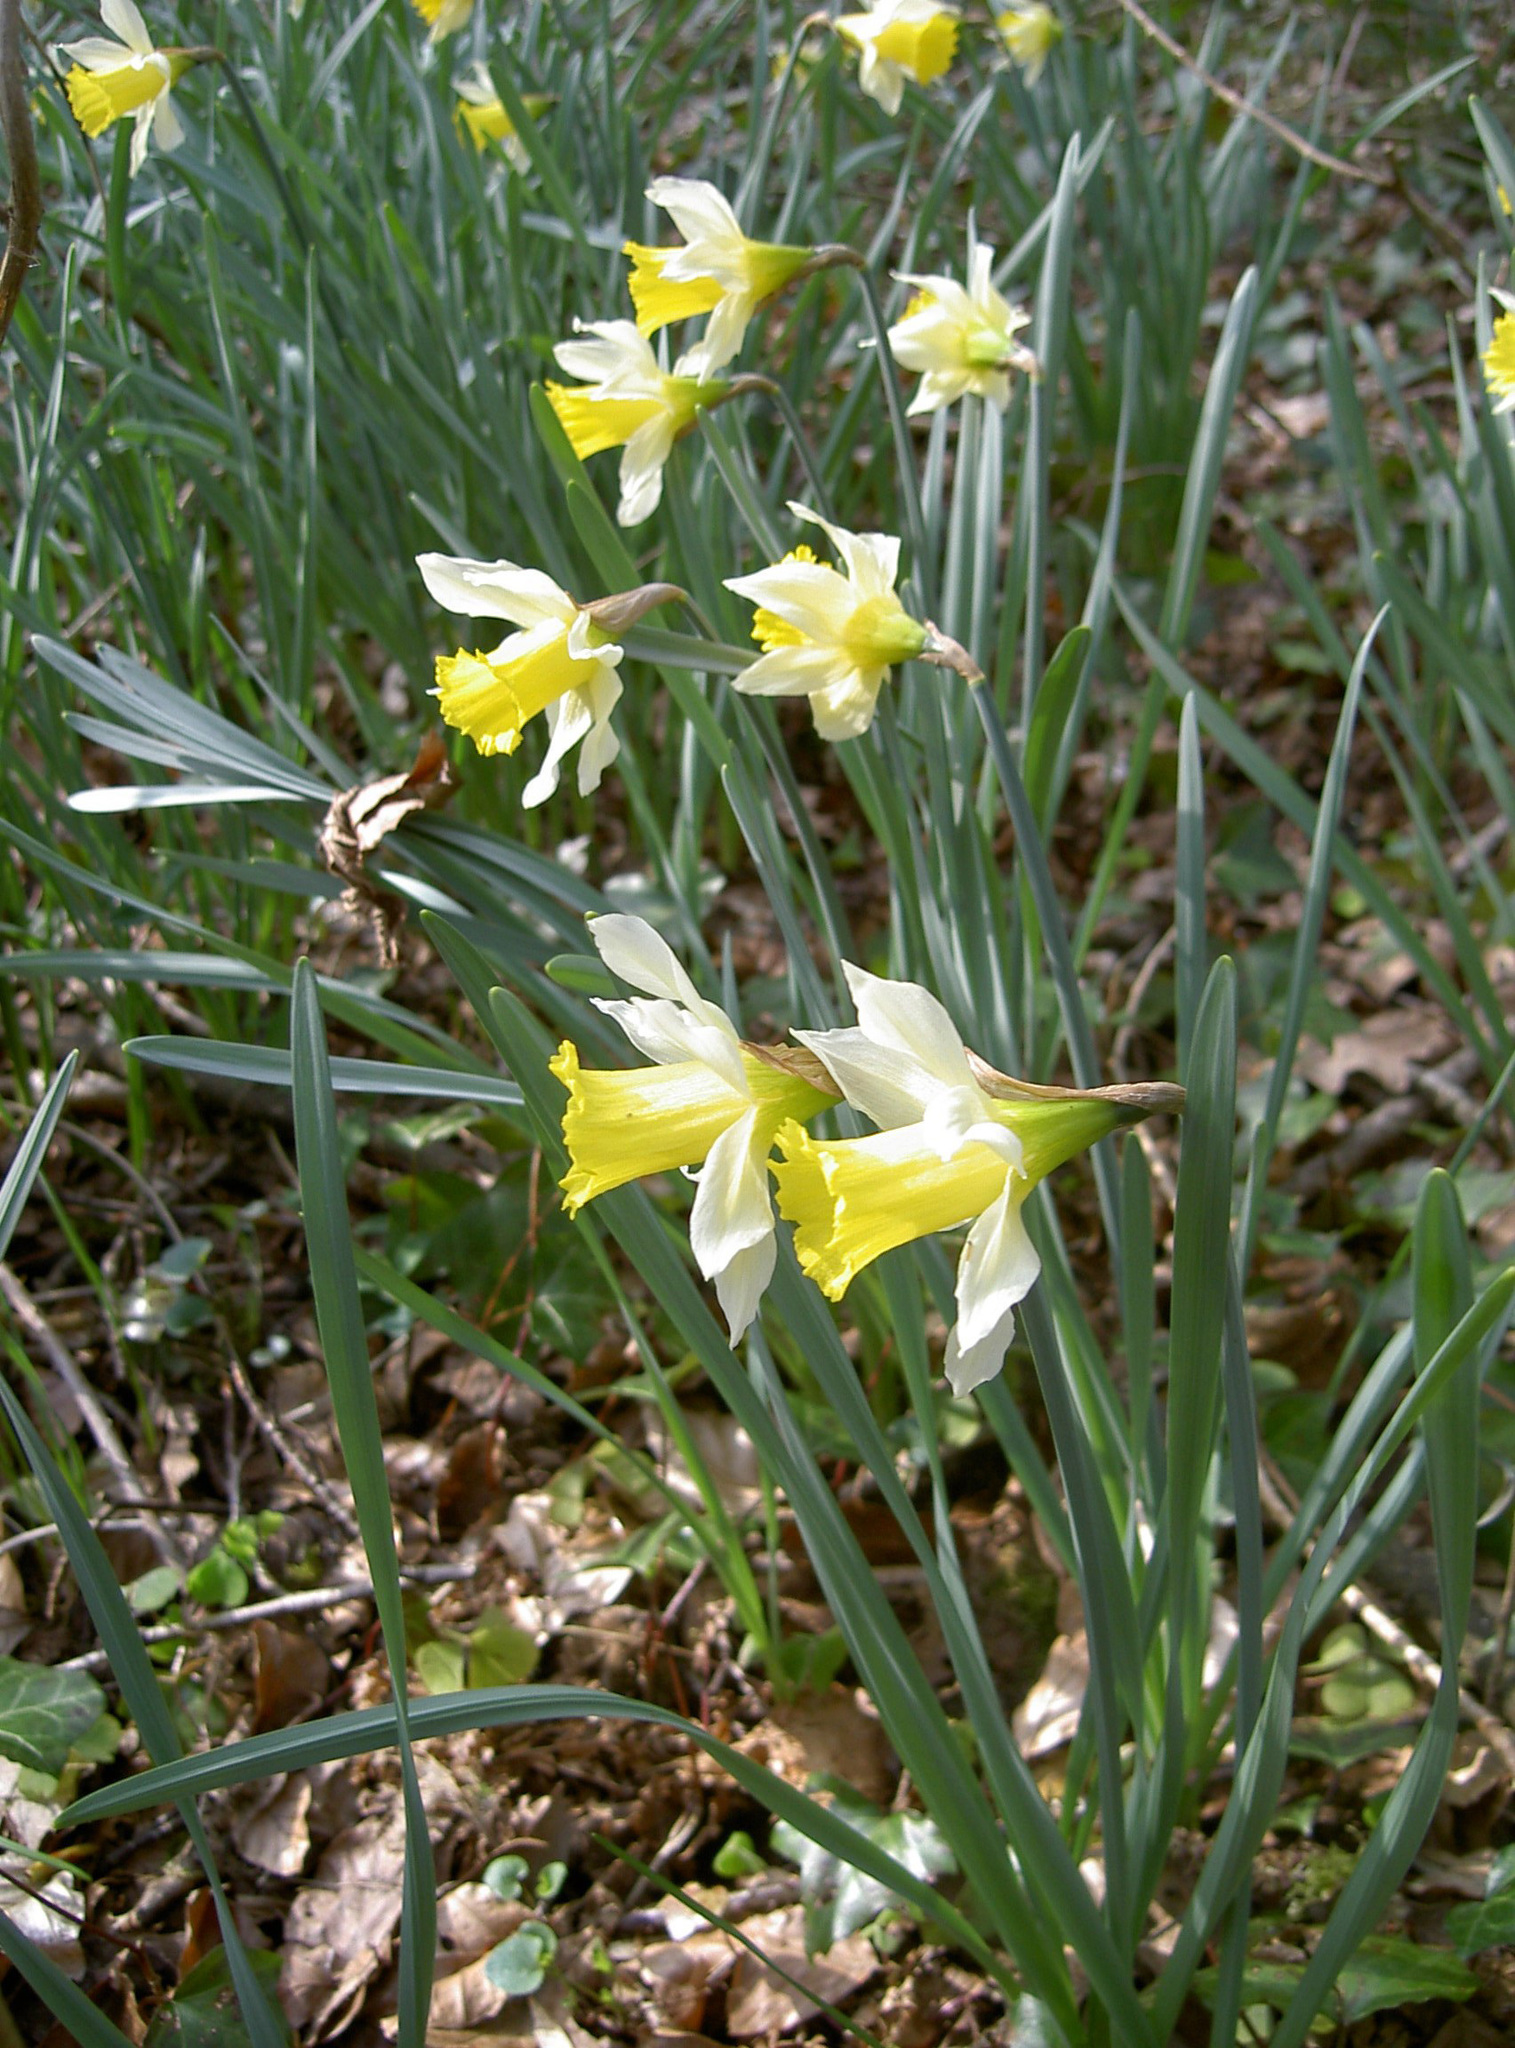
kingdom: Plantae
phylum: Tracheophyta
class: Liliopsida
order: Asparagales
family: Amaryllidaceae
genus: Narcissus
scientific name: Narcissus pseudonarcissus
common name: Daffodil
